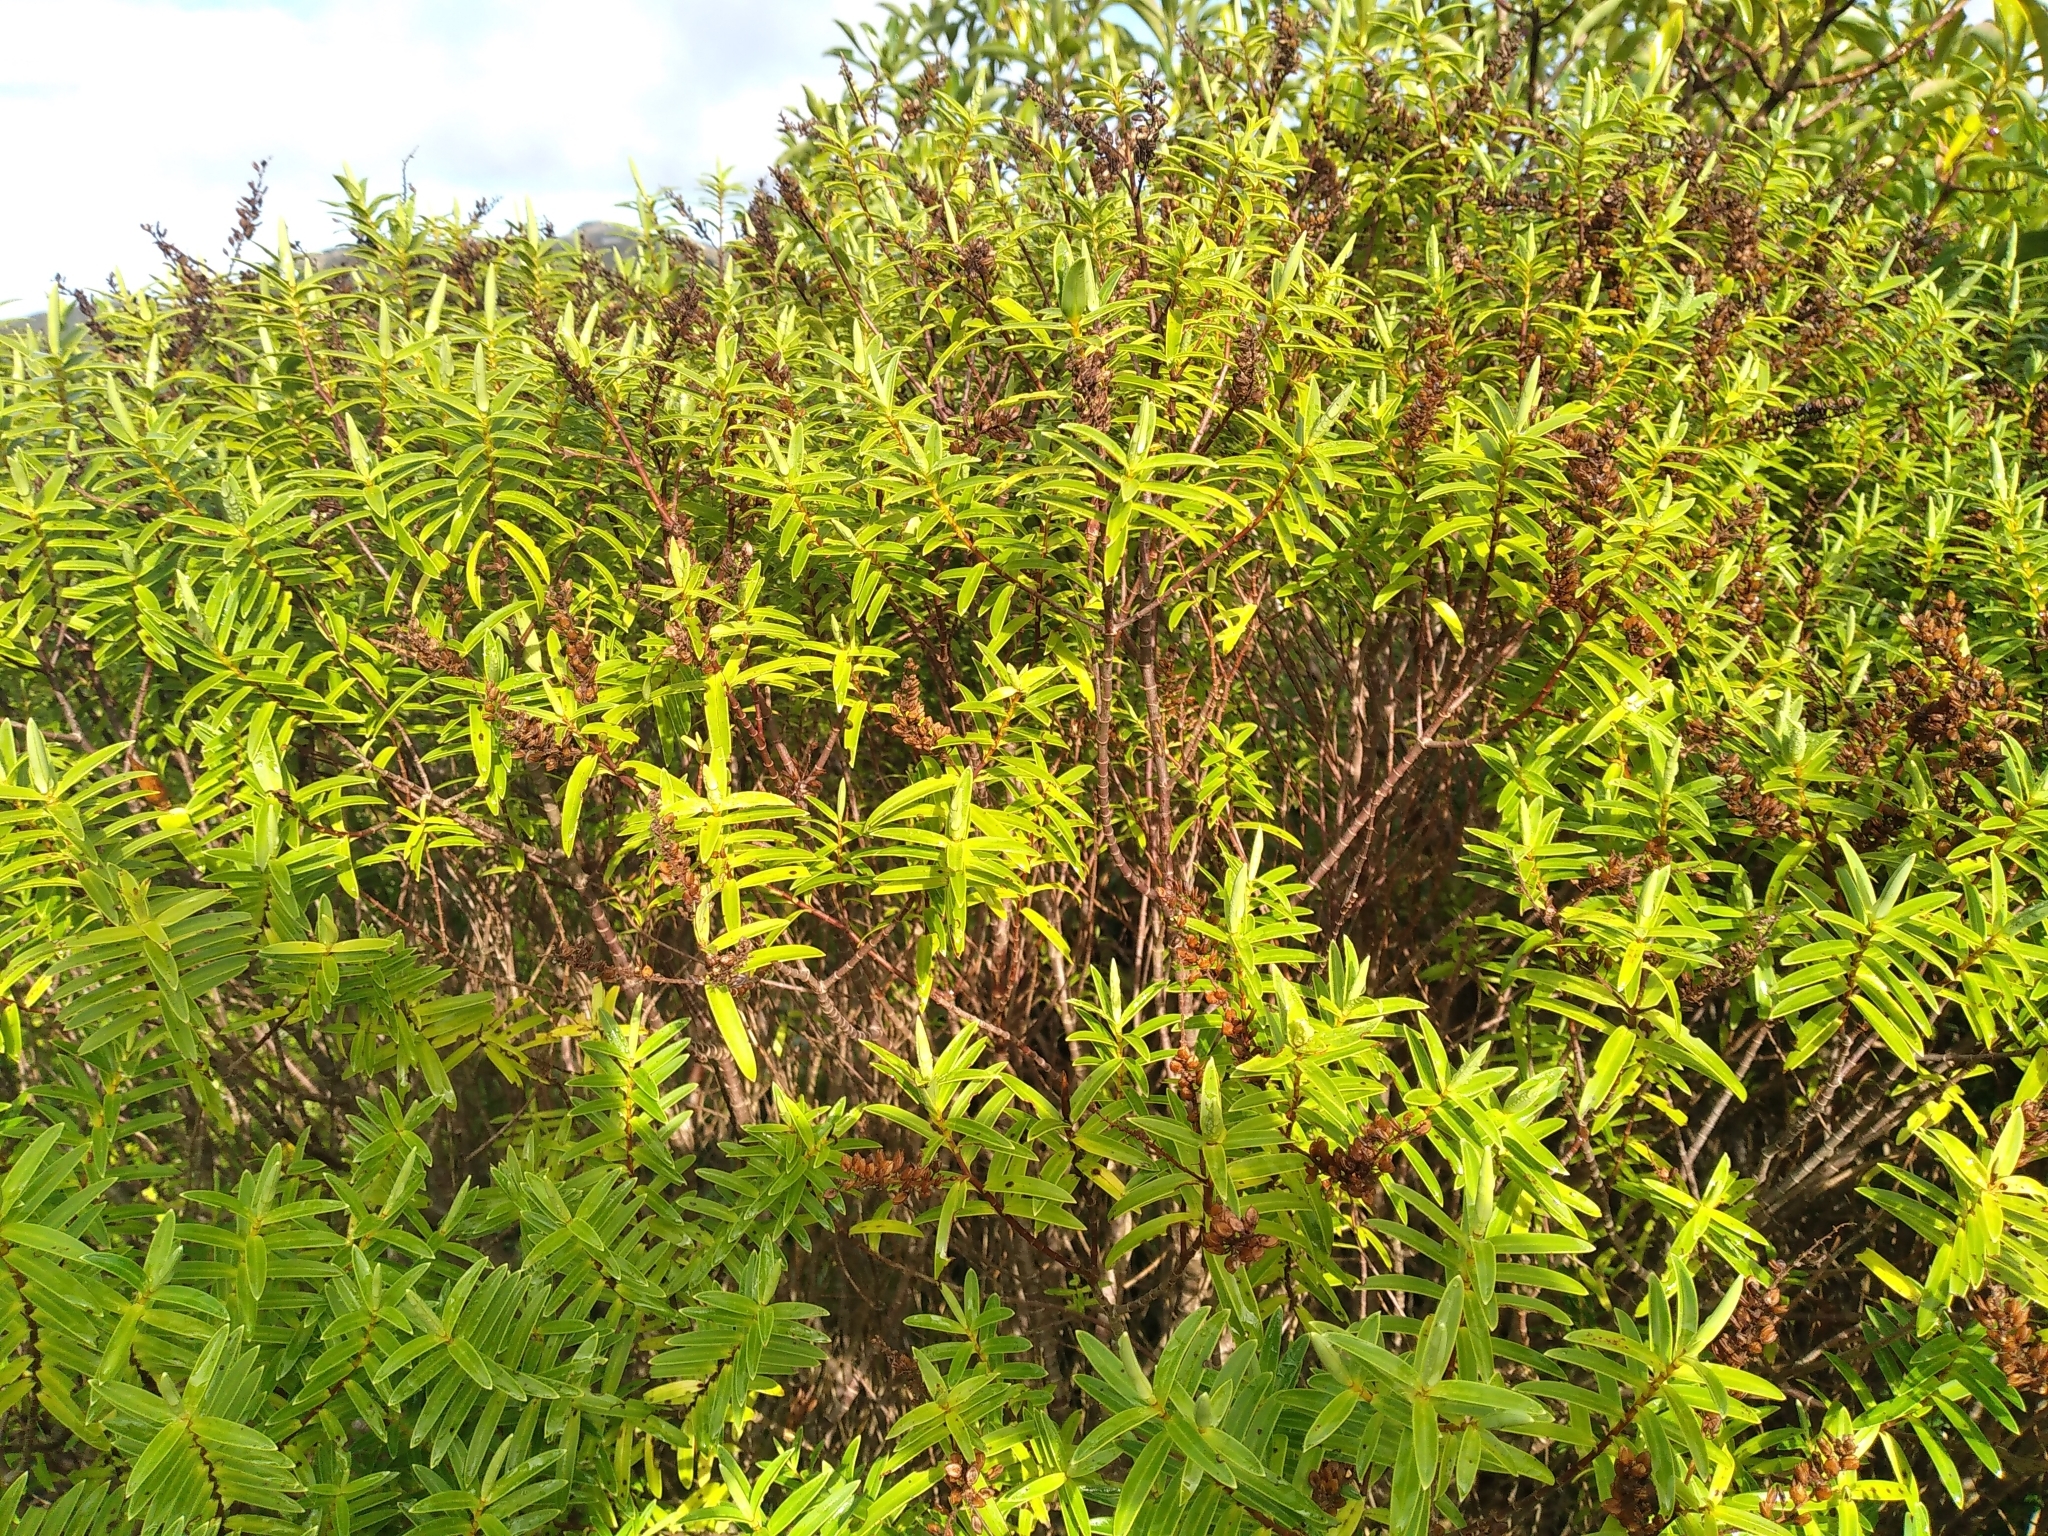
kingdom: Plantae
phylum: Tracheophyta
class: Magnoliopsida
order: Lamiales
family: Plantaginaceae
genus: Veronica
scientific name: Veronica parviflora
